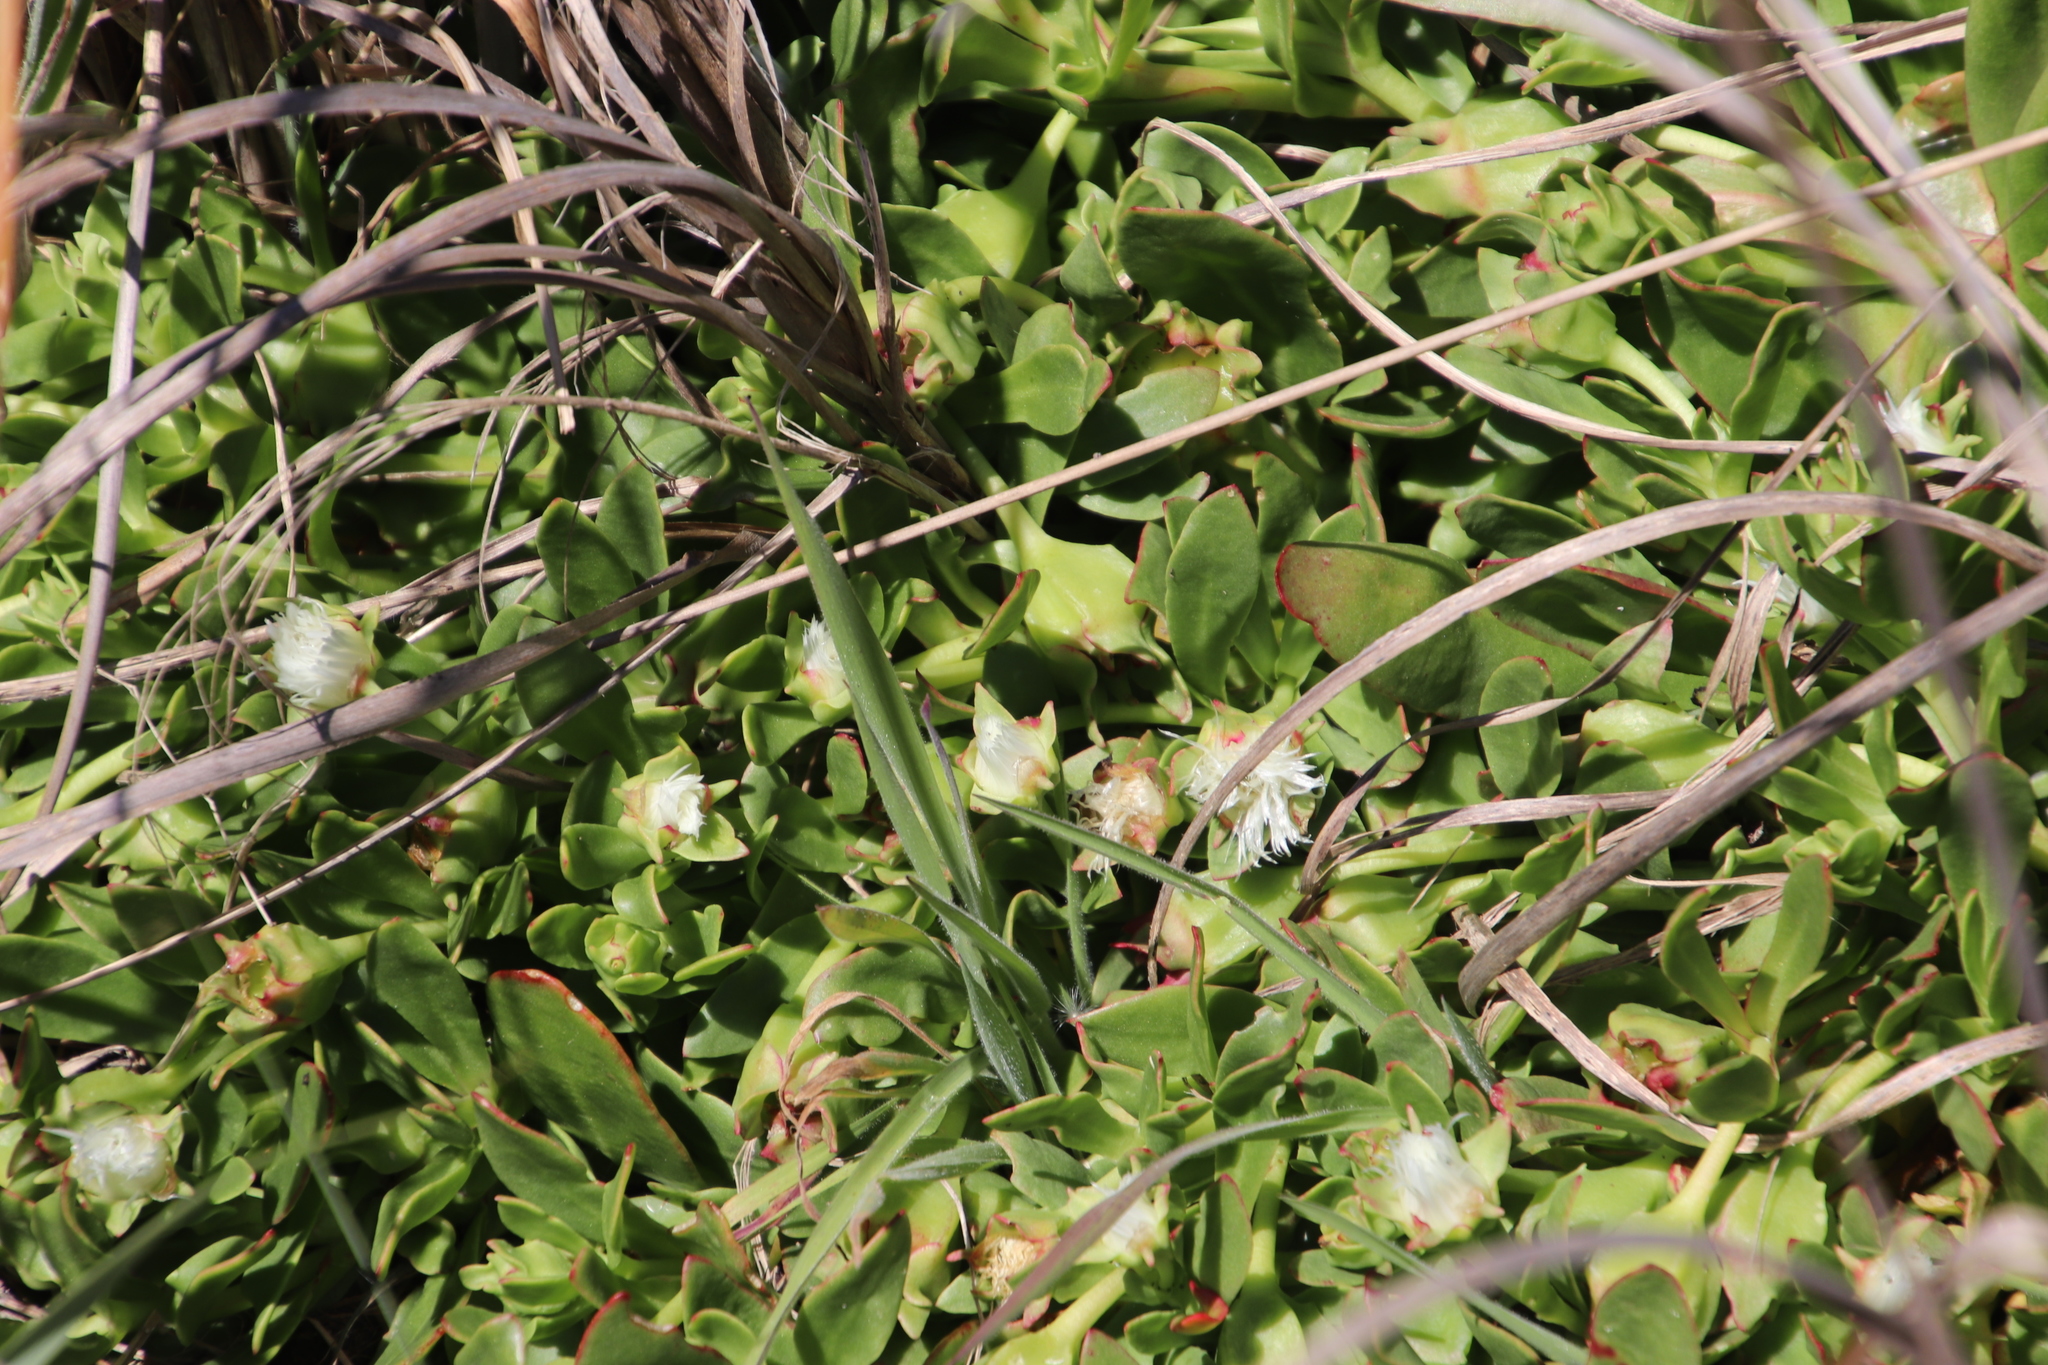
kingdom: Plantae
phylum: Tracheophyta
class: Magnoliopsida
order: Caryophyllales
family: Aizoaceae
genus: Skiatophytum
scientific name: Skiatophytum tripolium
